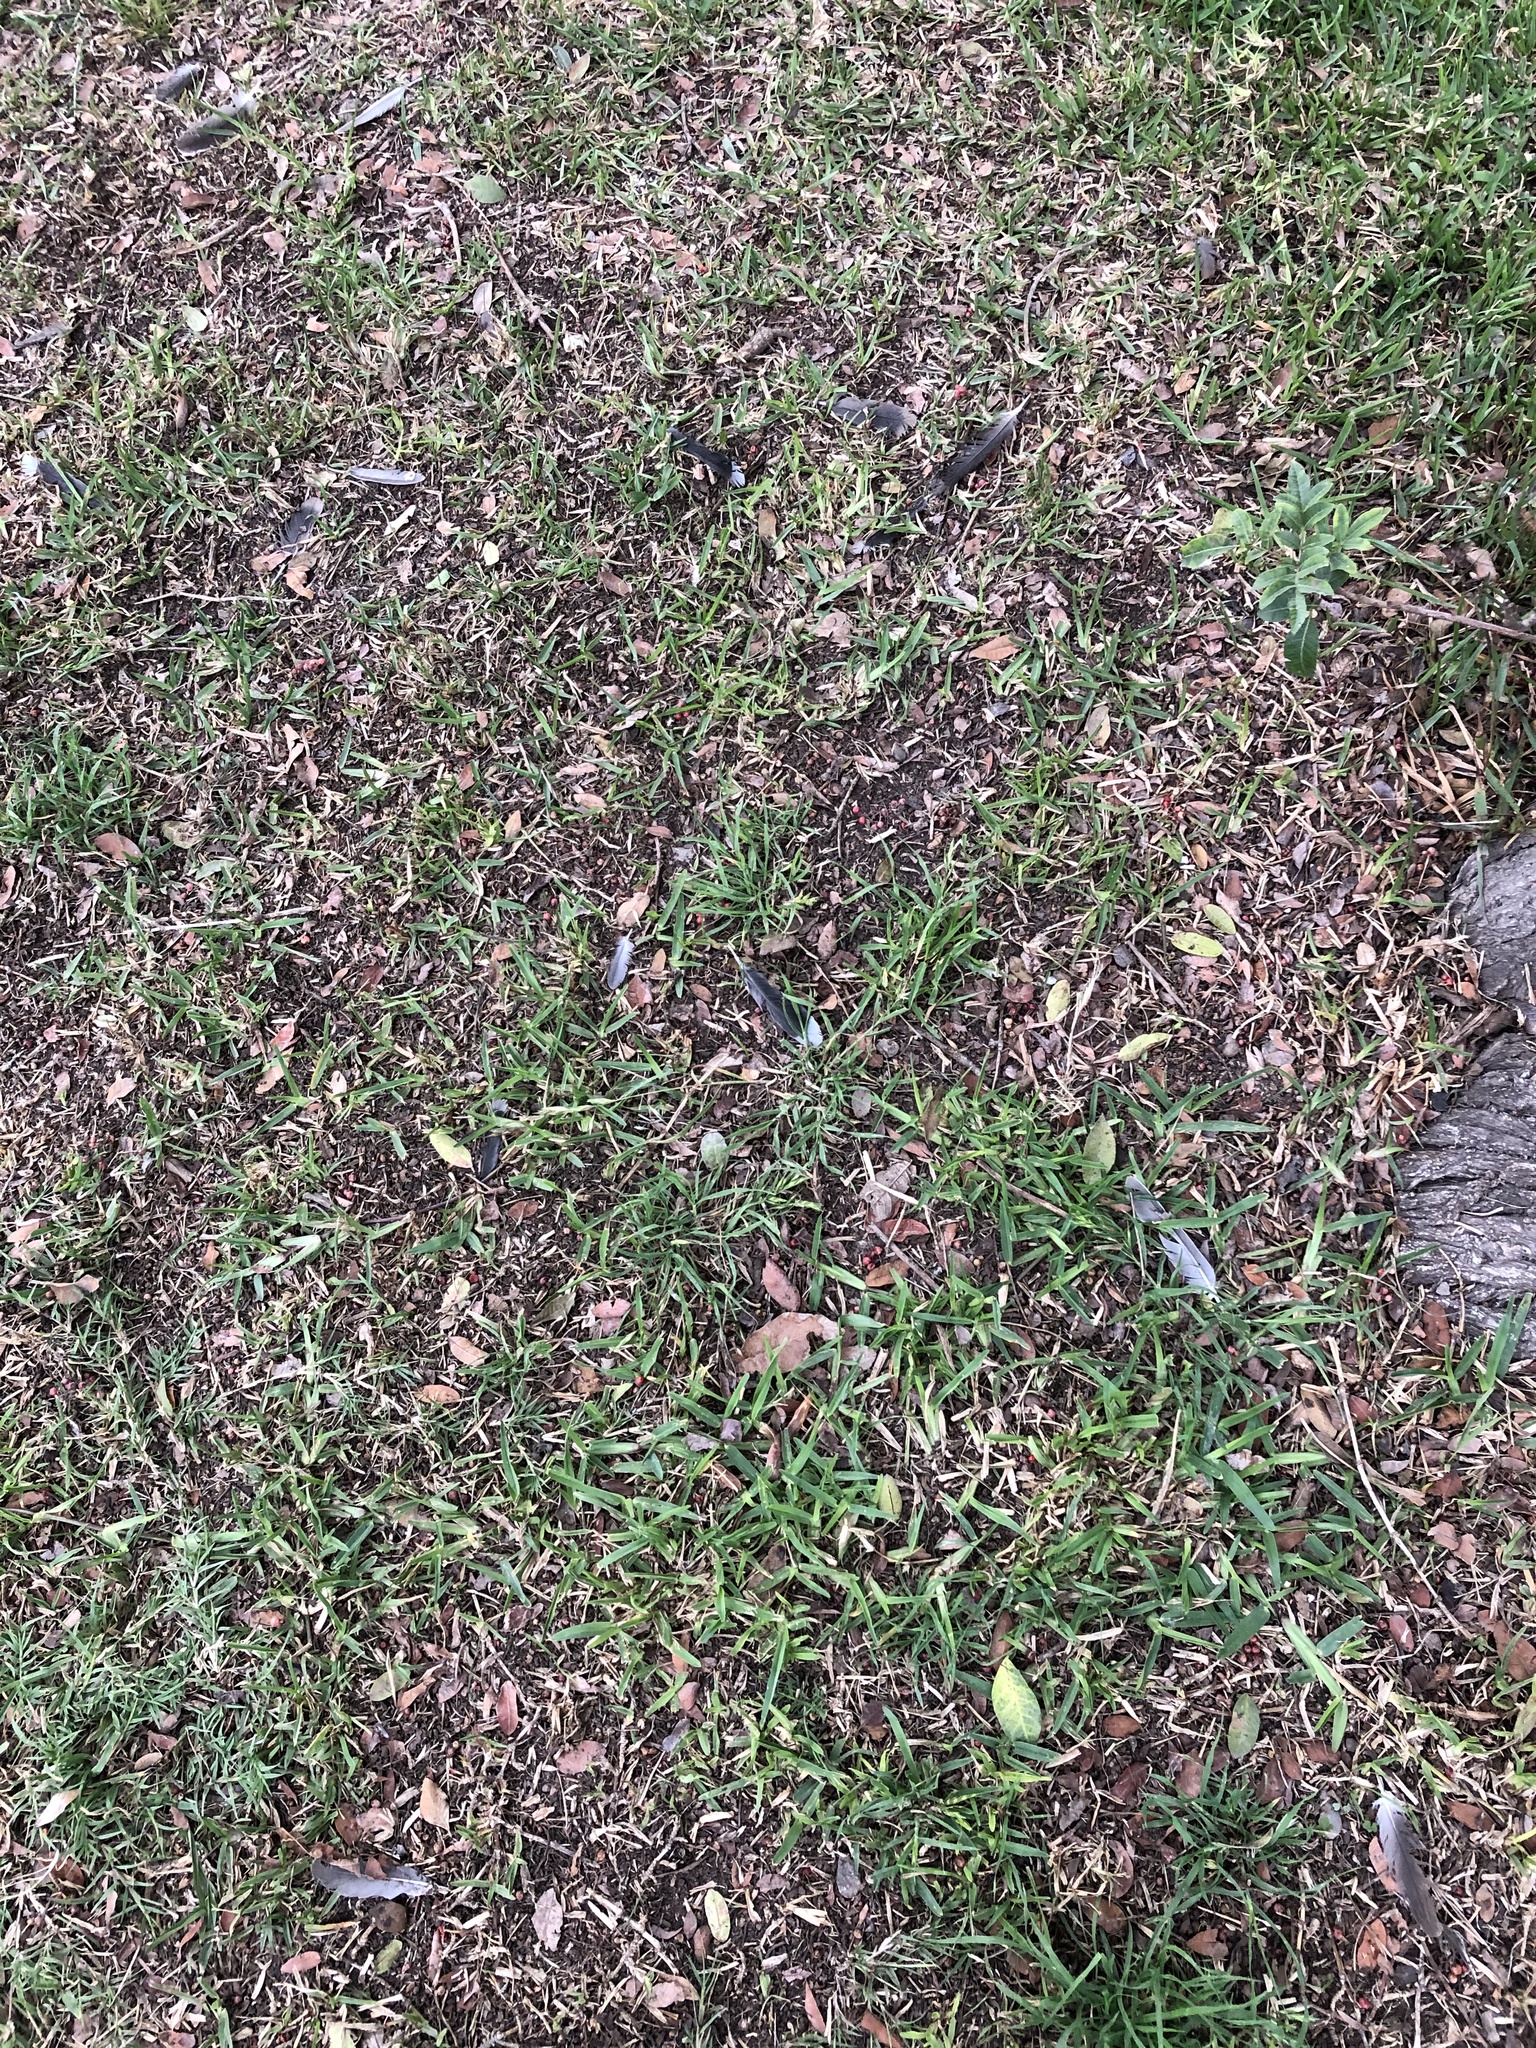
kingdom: Animalia
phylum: Chordata
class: Aves
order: Columbiformes
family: Columbidae
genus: Zenaida
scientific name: Zenaida meloda
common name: West peruvian dove
